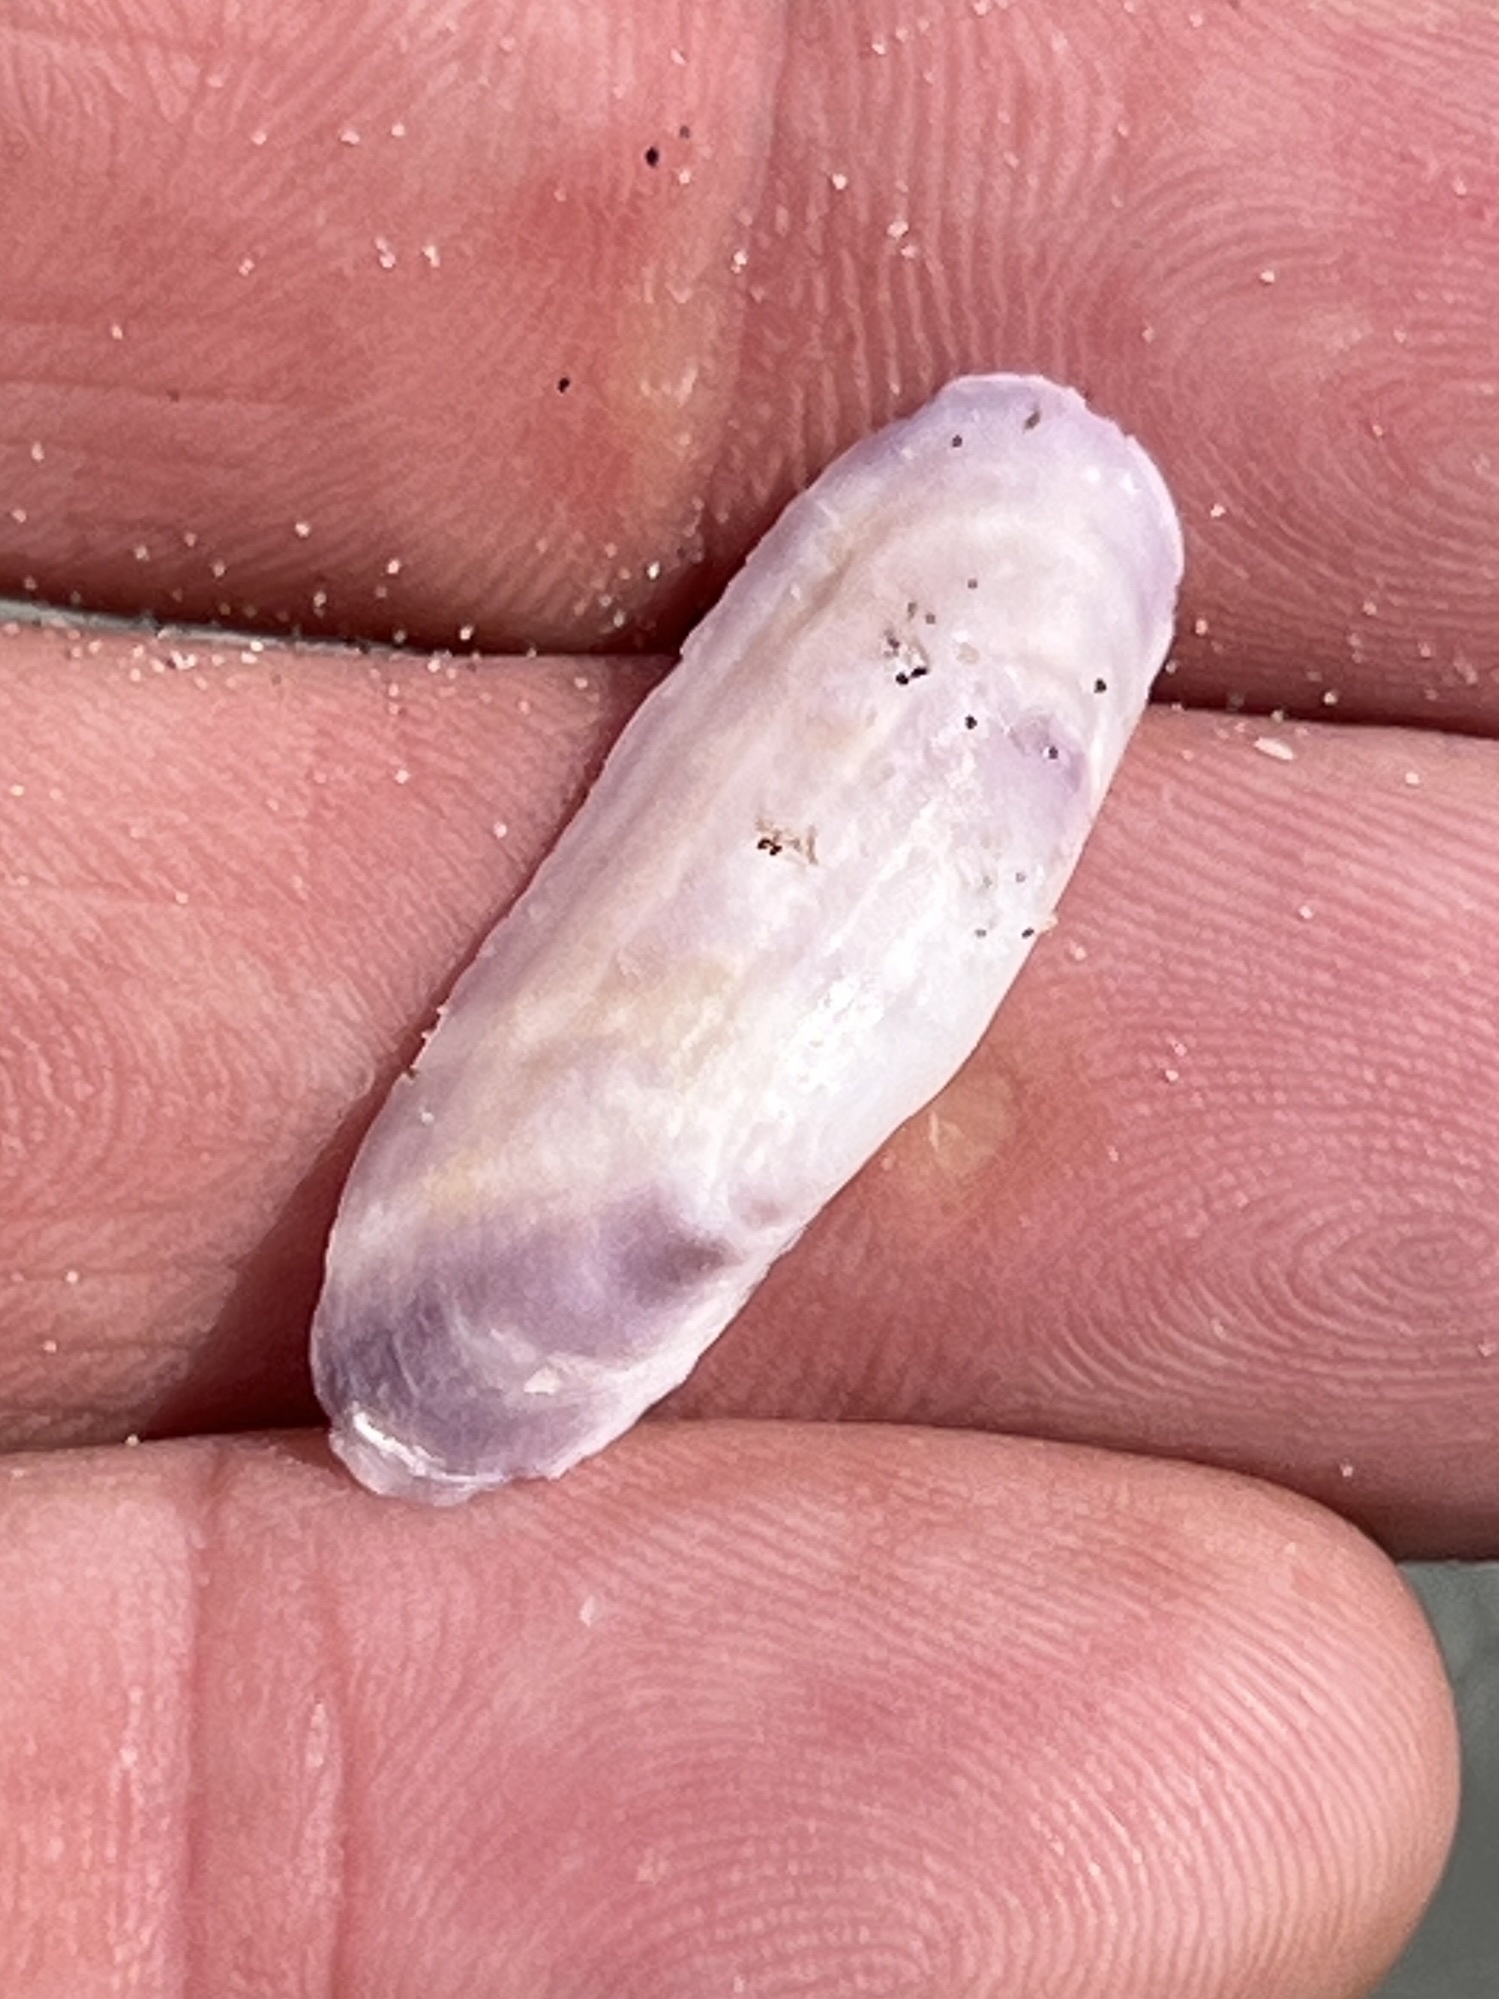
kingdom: Animalia
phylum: Mollusca
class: Bivalvia
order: Cardiida
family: Solecurtidae
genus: Tagelus
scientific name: Tagelus divisus
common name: Purplish tagelus
